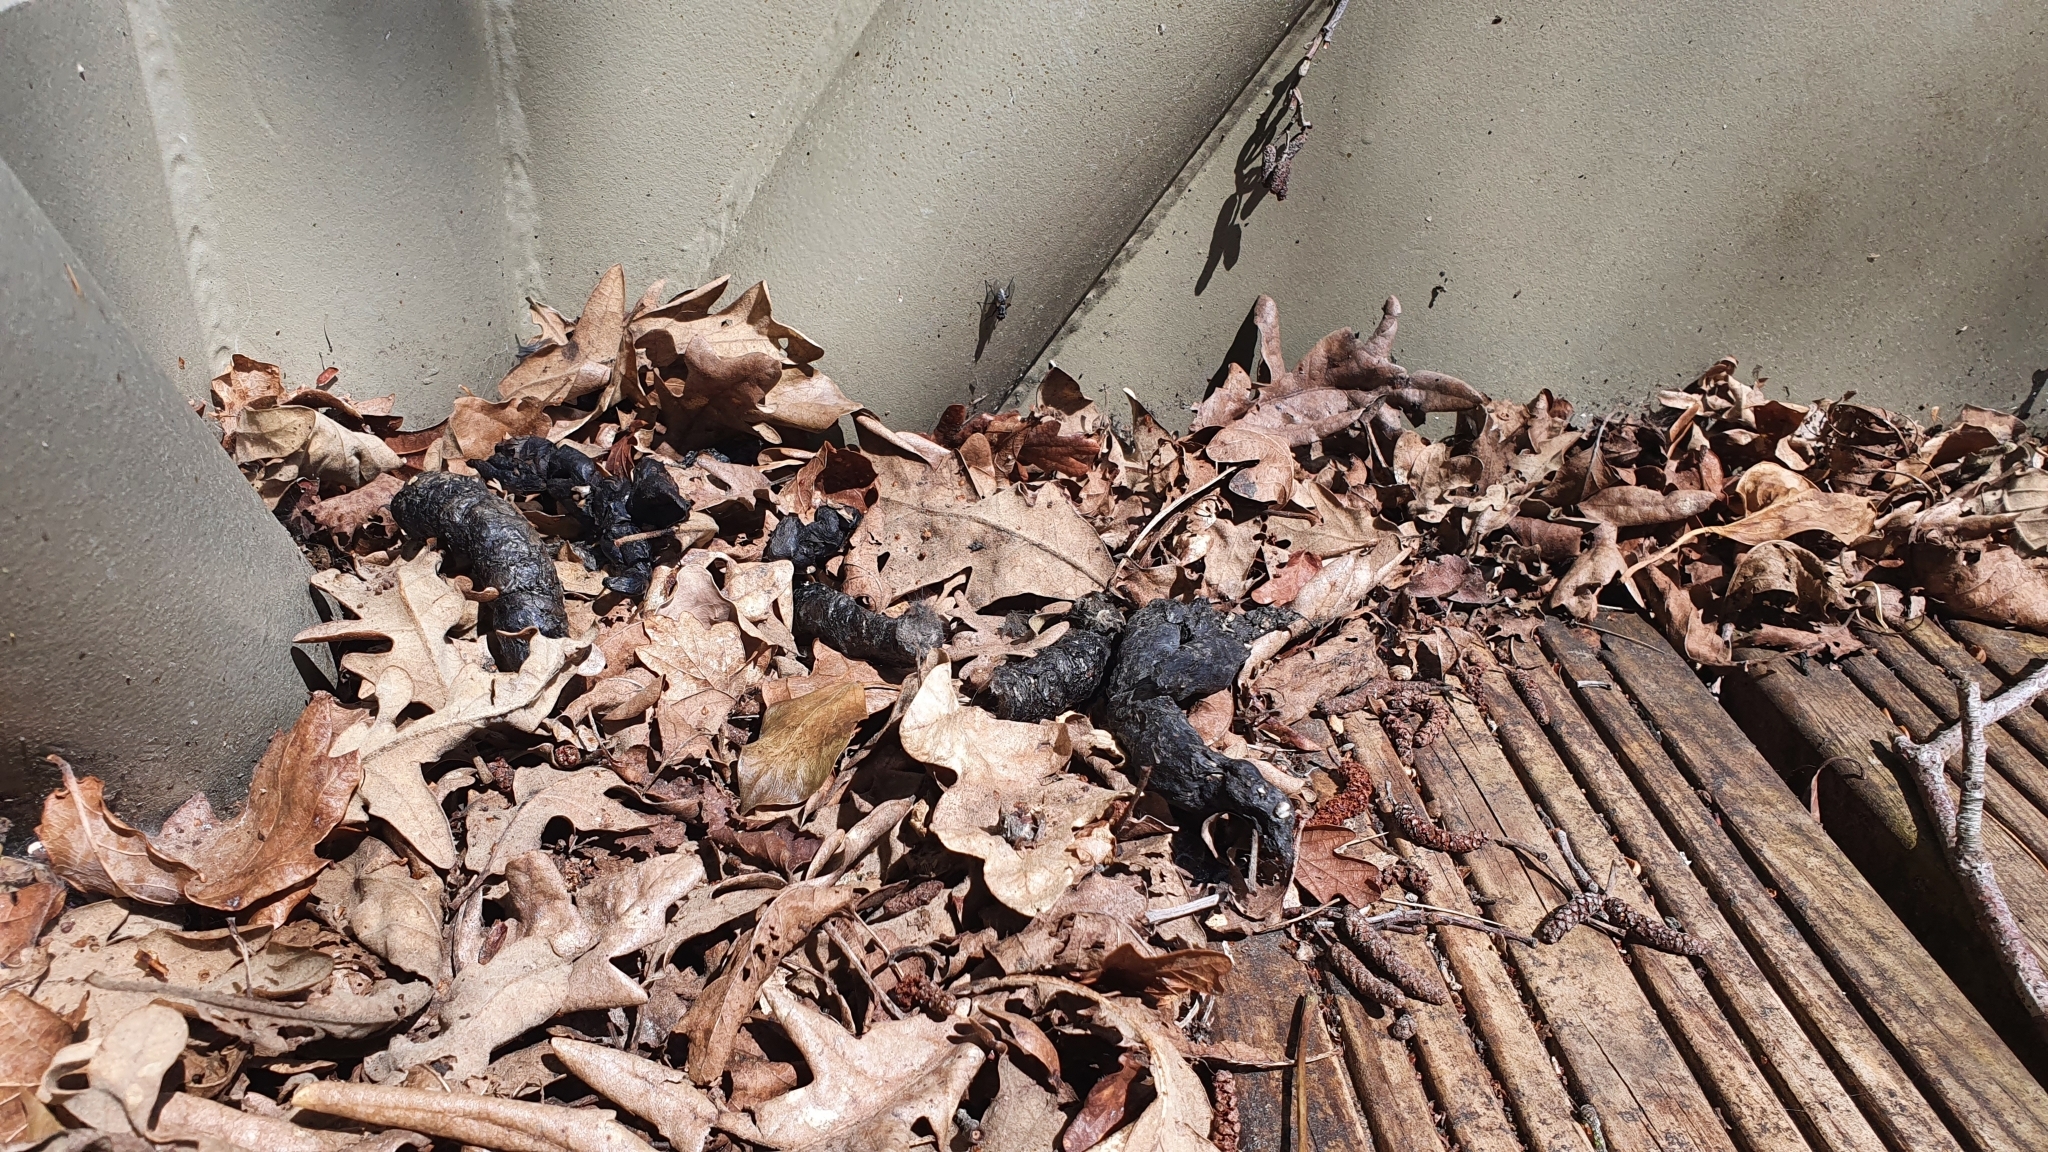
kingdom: Animalia
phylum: Chordata
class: Mammalia
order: Carnivora
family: Viverridae
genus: Genetta
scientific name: Genetta genetta
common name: Common genet
